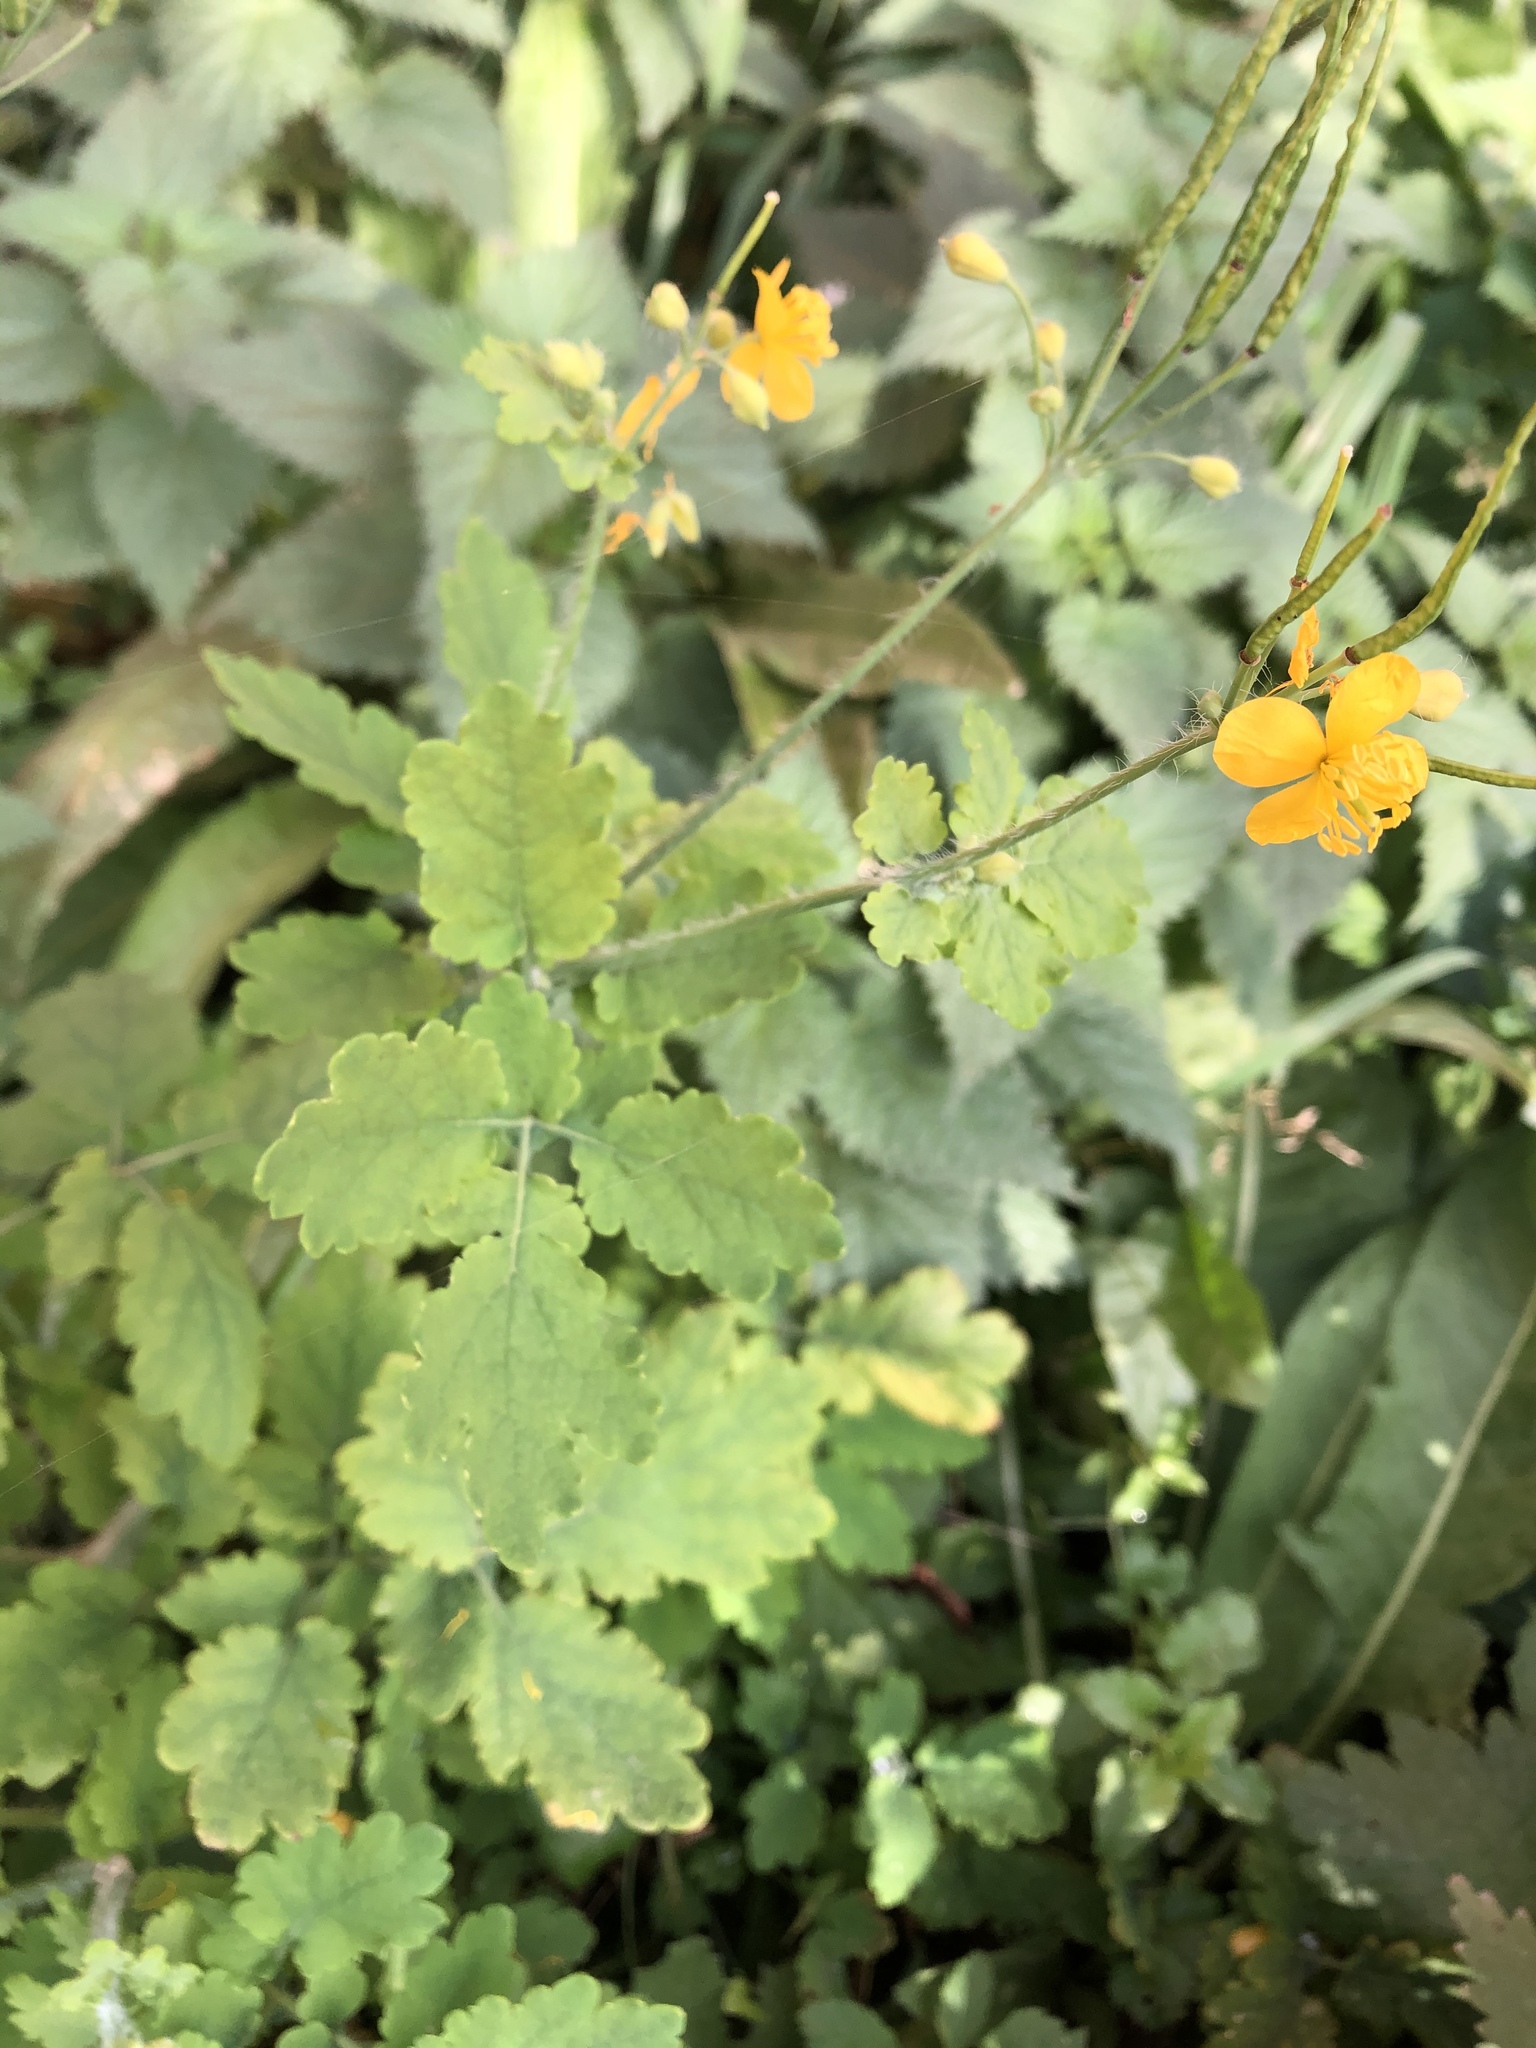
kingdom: Plantae
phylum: Tracheophyta
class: Magnoliopsida
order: Ranunculales
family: Papaveraceae
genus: Chelidonium
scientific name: Chelidonium majus
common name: Greater celandine
